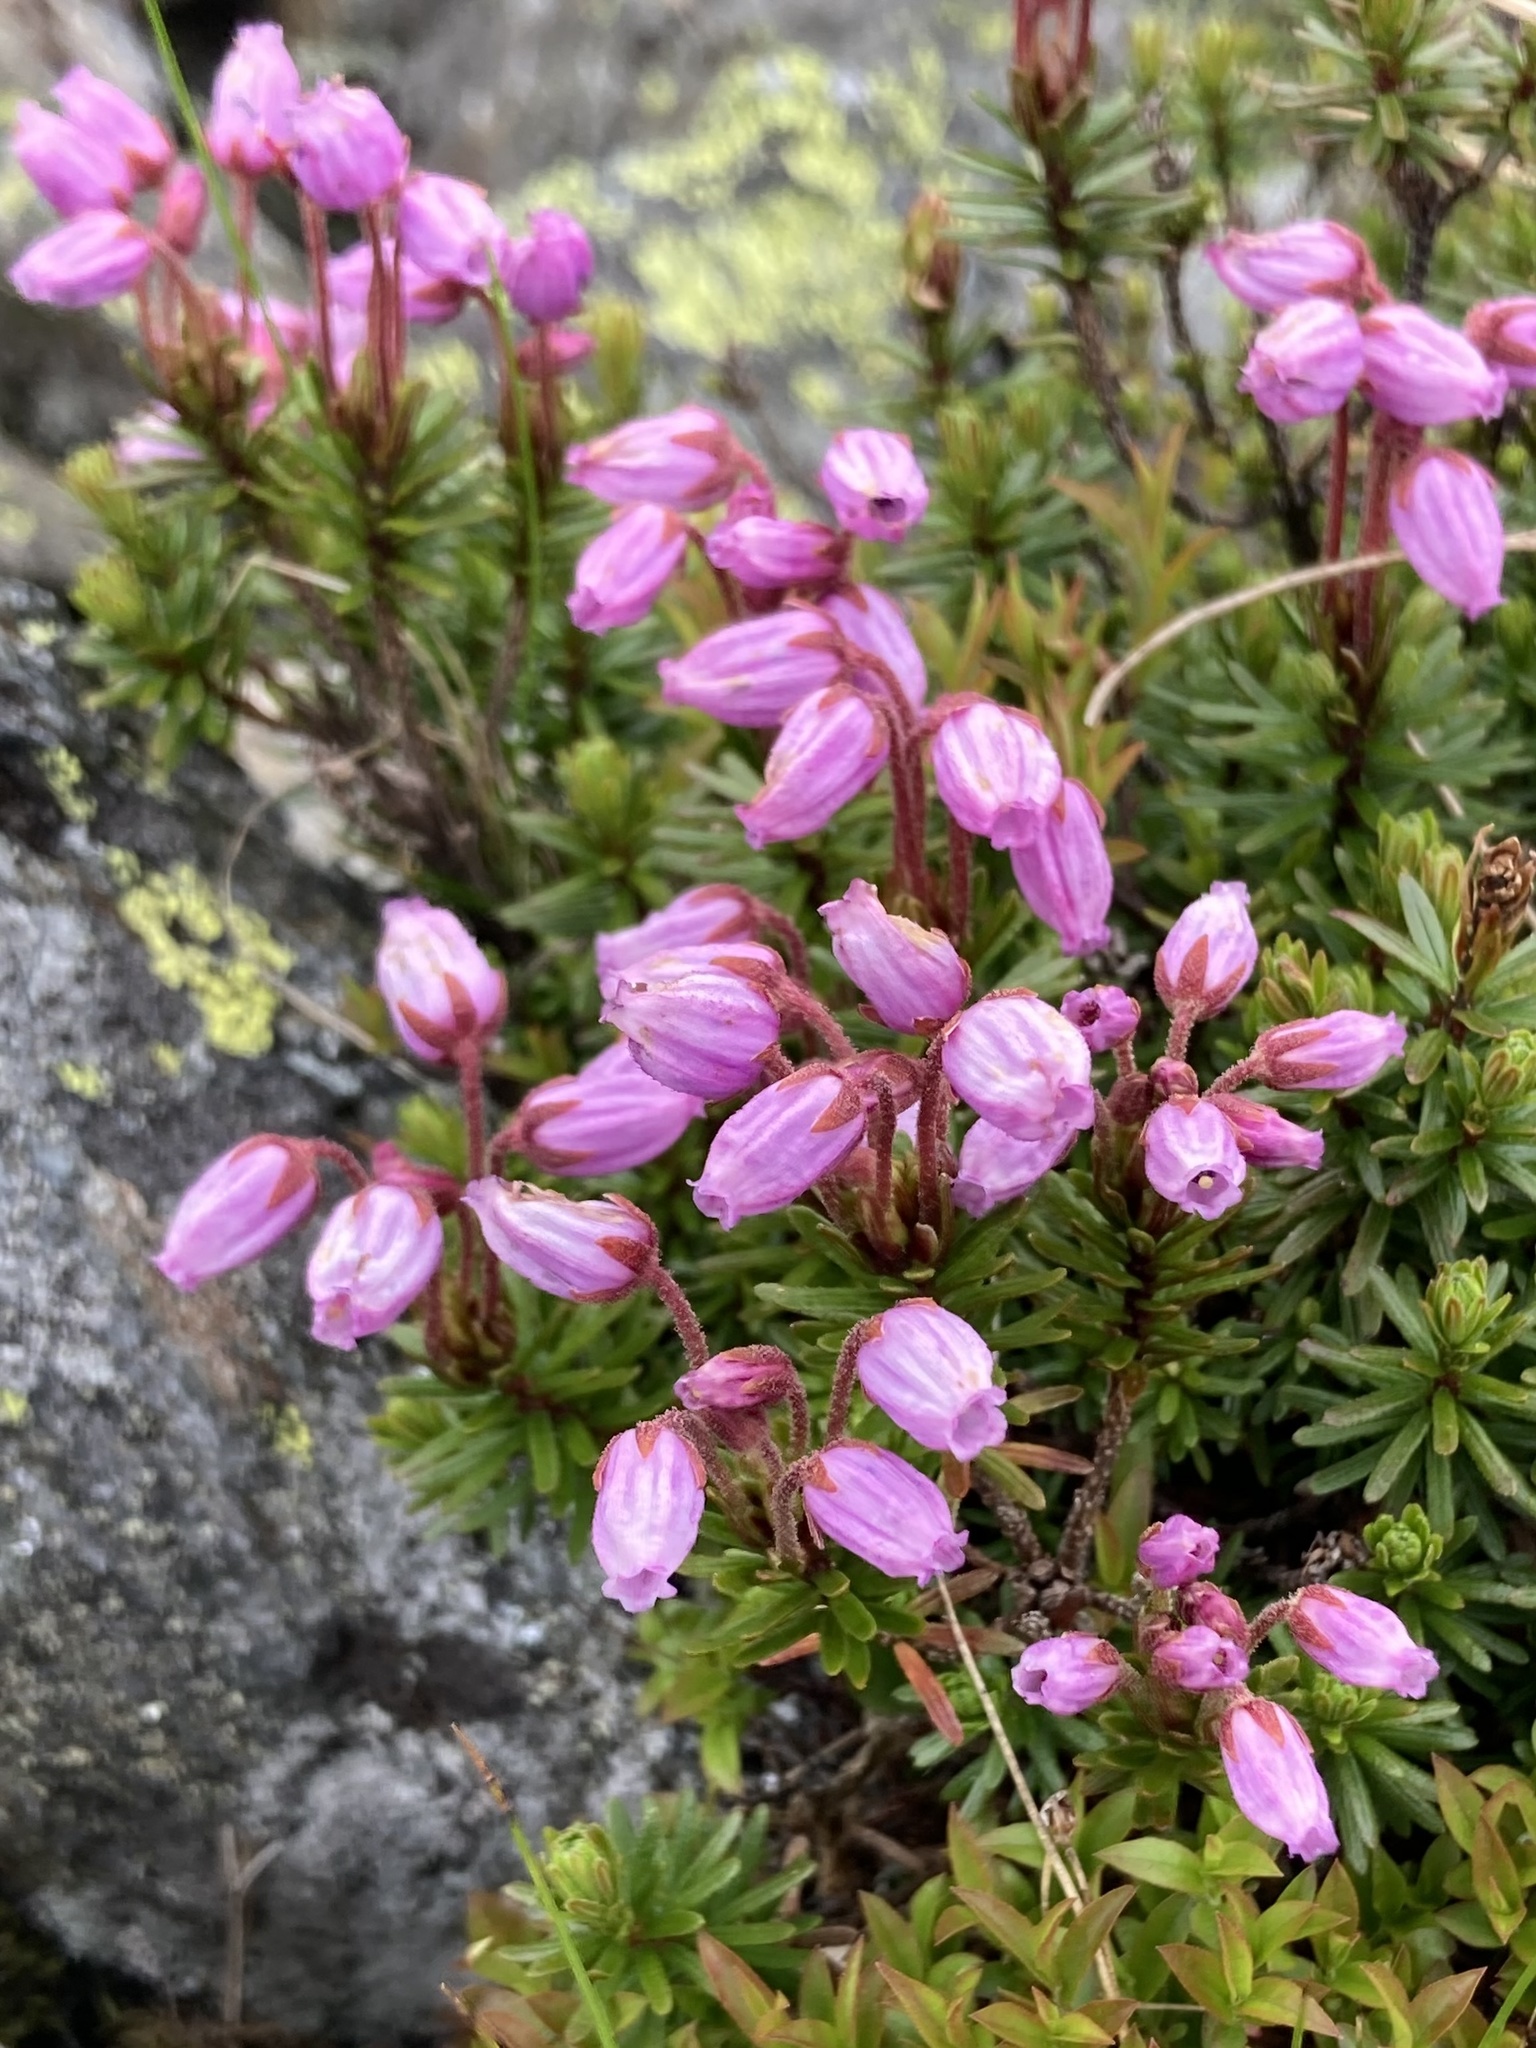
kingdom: Plantae
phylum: Tracheophyta
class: Magnoliopsida
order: Ericales
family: Ericaceae
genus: Phyllodoce
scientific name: Phyllodoce caerulea
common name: Blue heath
